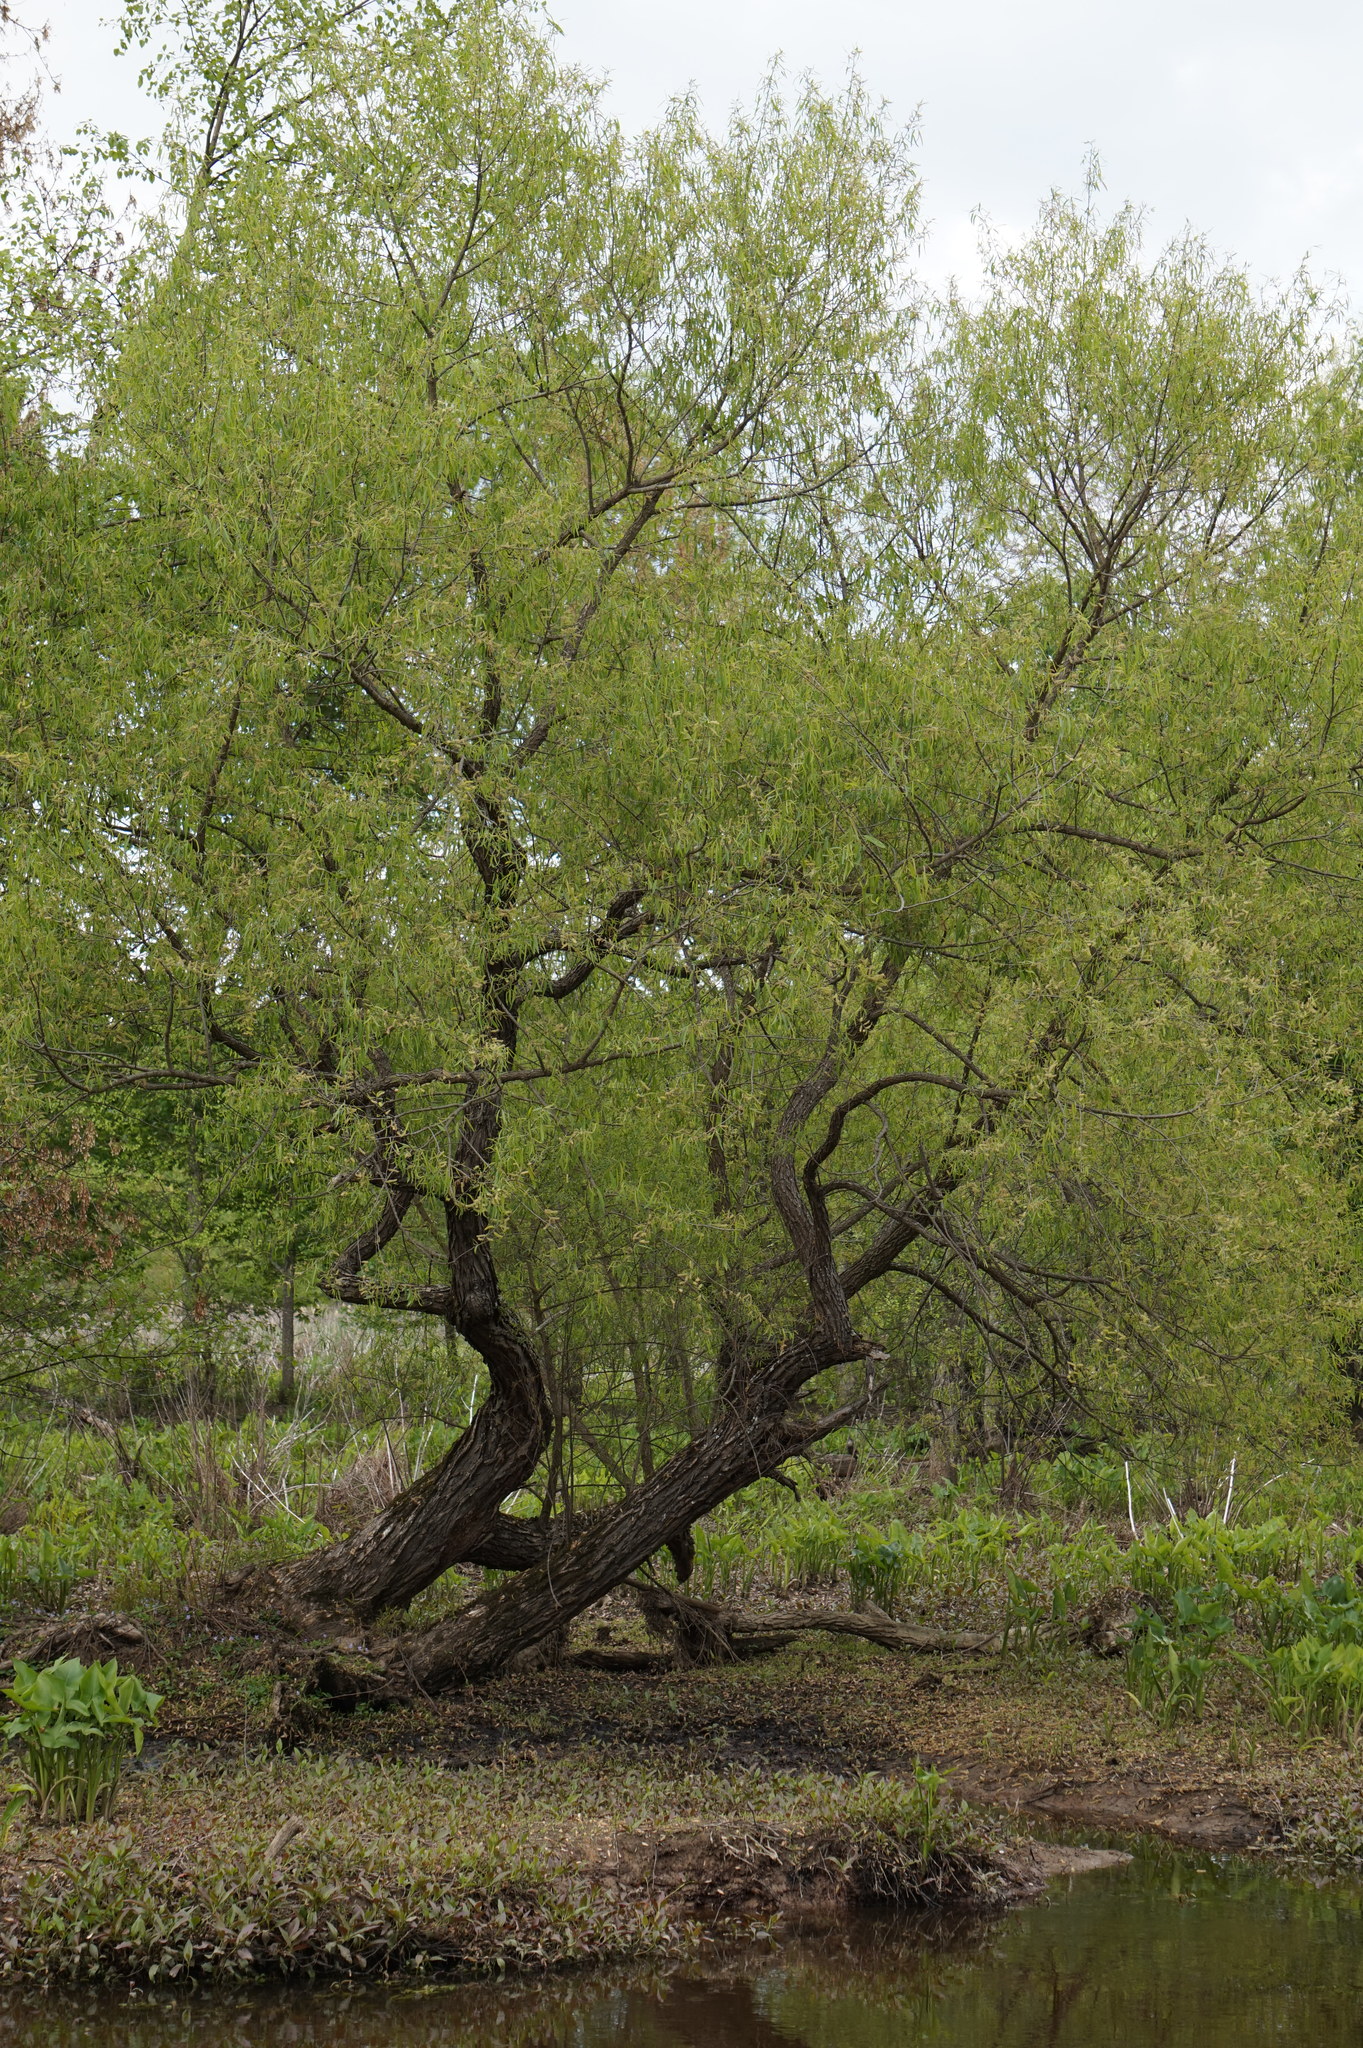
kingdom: Plantae
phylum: Tracheophyta
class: Magnoliopsida
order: Malpighiales
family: Salicaceae
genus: Salix
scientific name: Salix nigra
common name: Black willow
